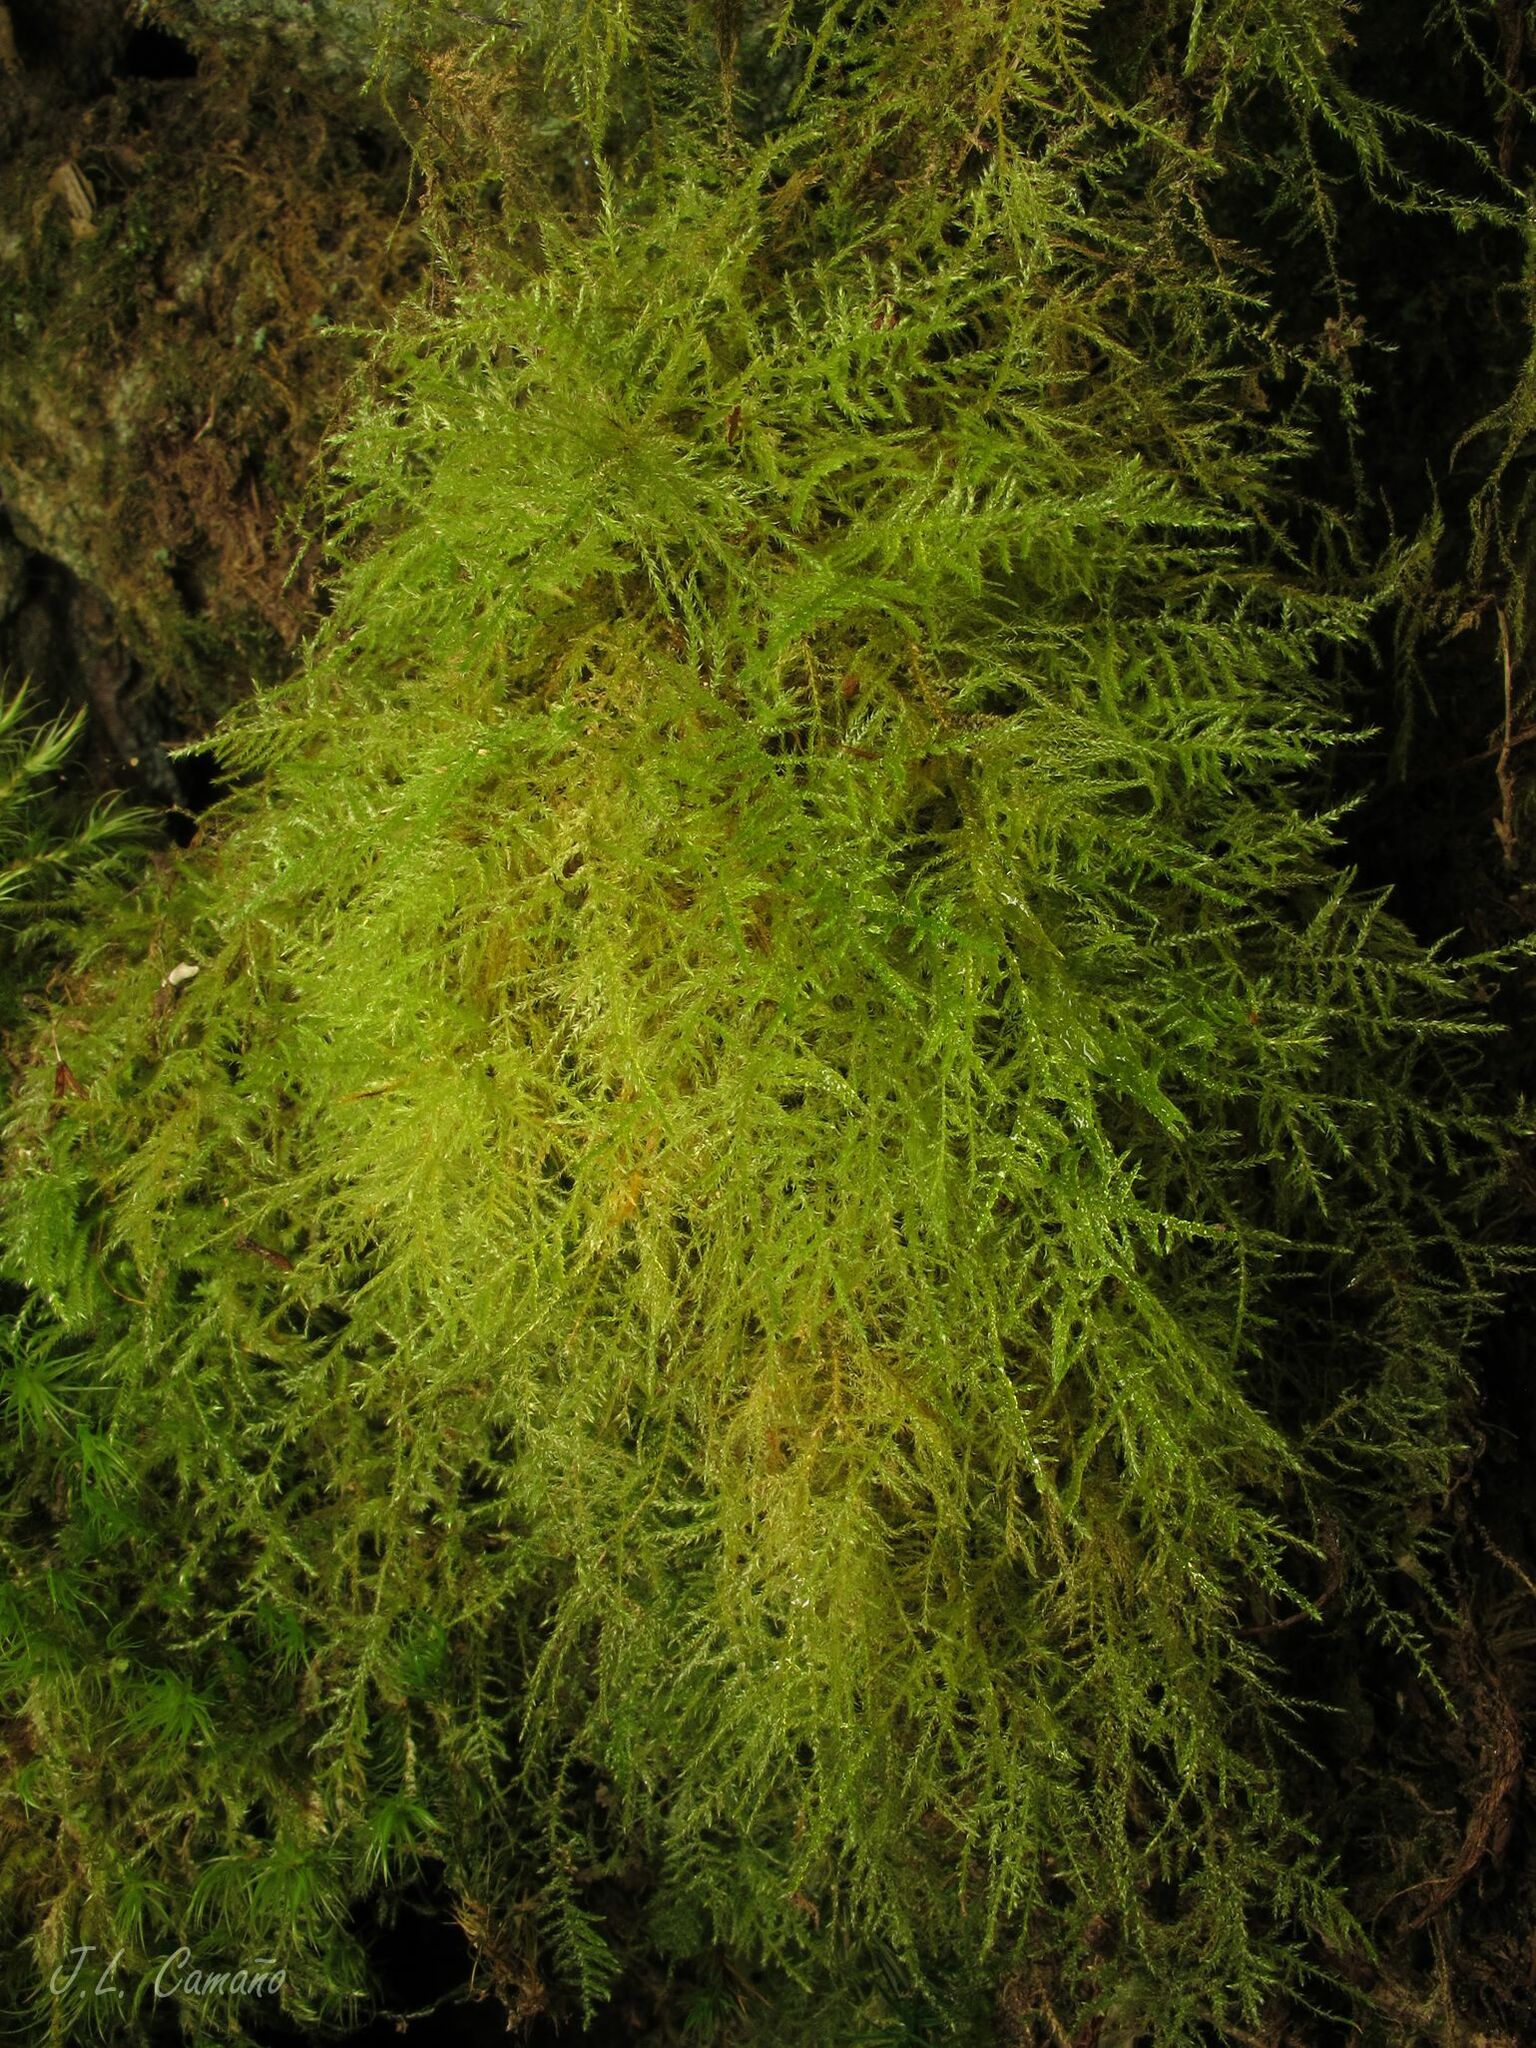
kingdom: Plantae
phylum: Bryophyta
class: Bryopsida
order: Hypnales
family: Brachytheciaceae
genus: Kindbergia
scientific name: Kindbergia praelonga
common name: Slender beaked moss
